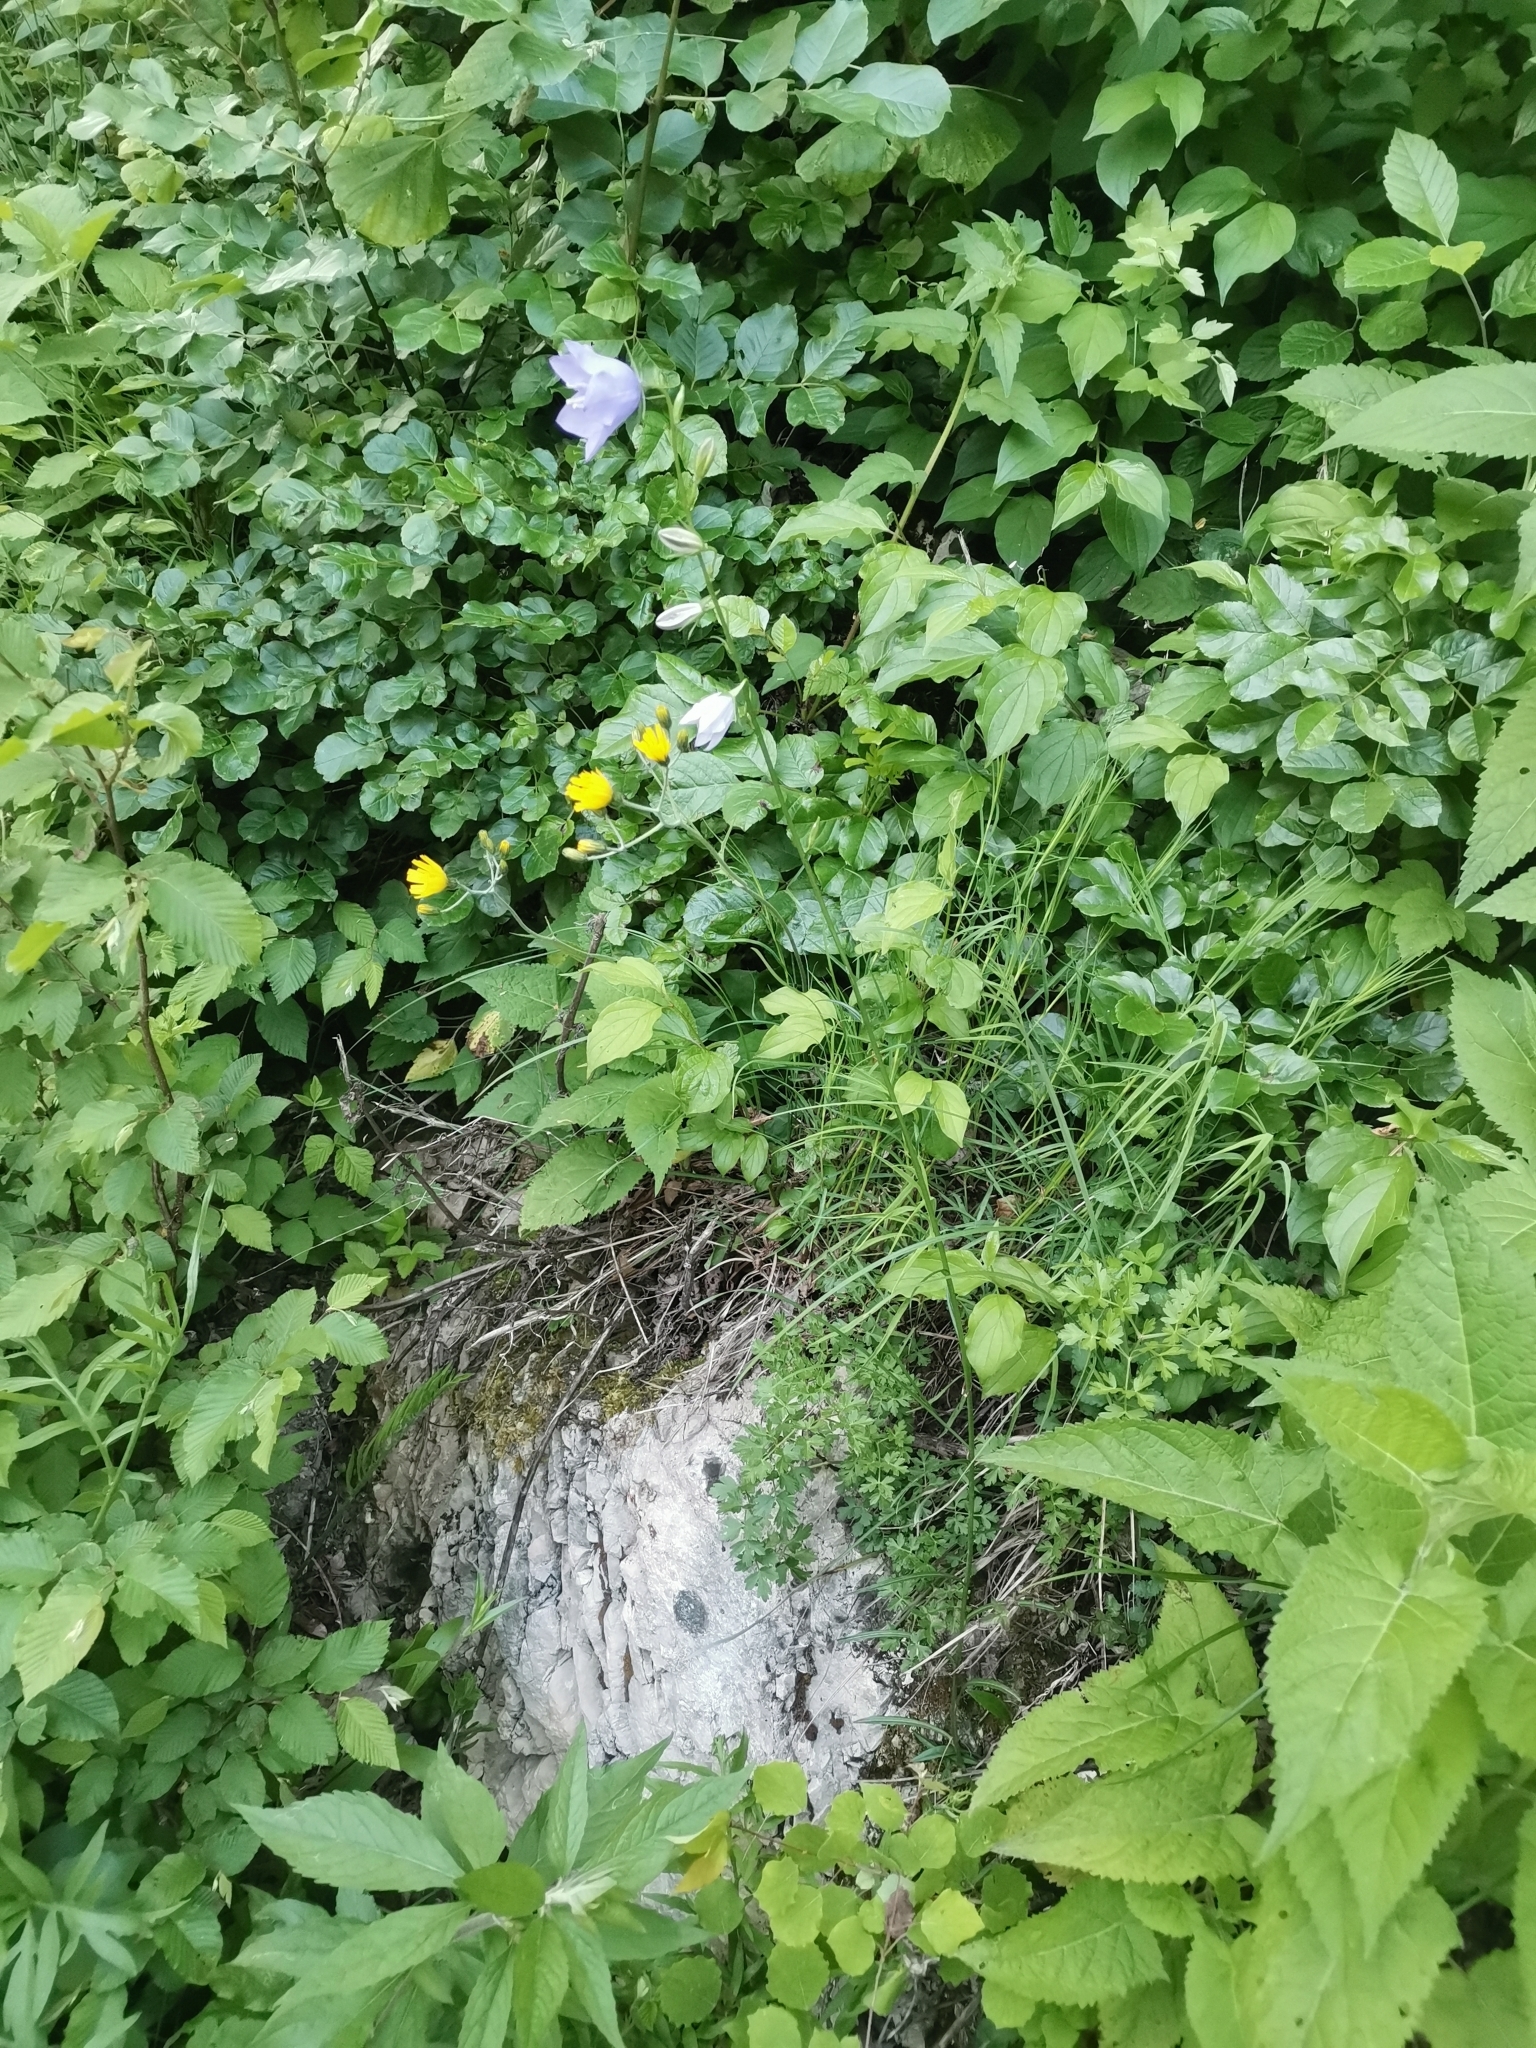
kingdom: Plantae
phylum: Tracheophyta
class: Magnoliopsida
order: Asterales
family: Campanulaceae
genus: Campanula
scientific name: Campanula persicifolia
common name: Peach-leaved bellflower
